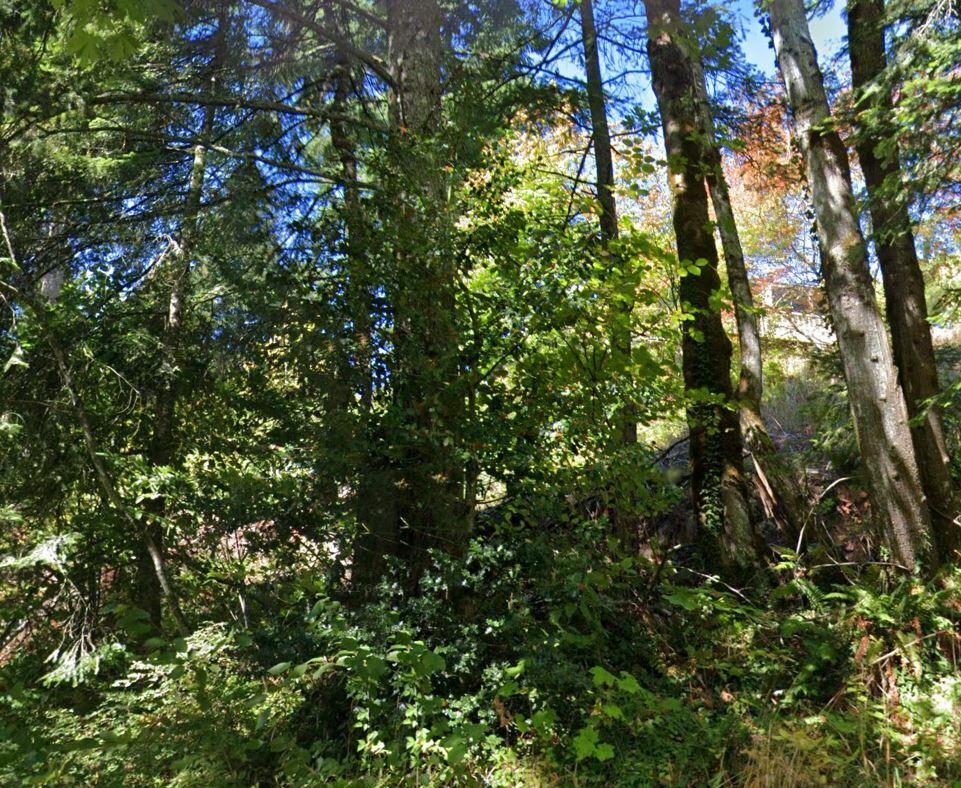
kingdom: Plantae
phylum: Tracheophyta
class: Magnoliopsida
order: Aquifoliales
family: Aquifoliaceae
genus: Ilex
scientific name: Ilex aquifolium
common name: English holly
